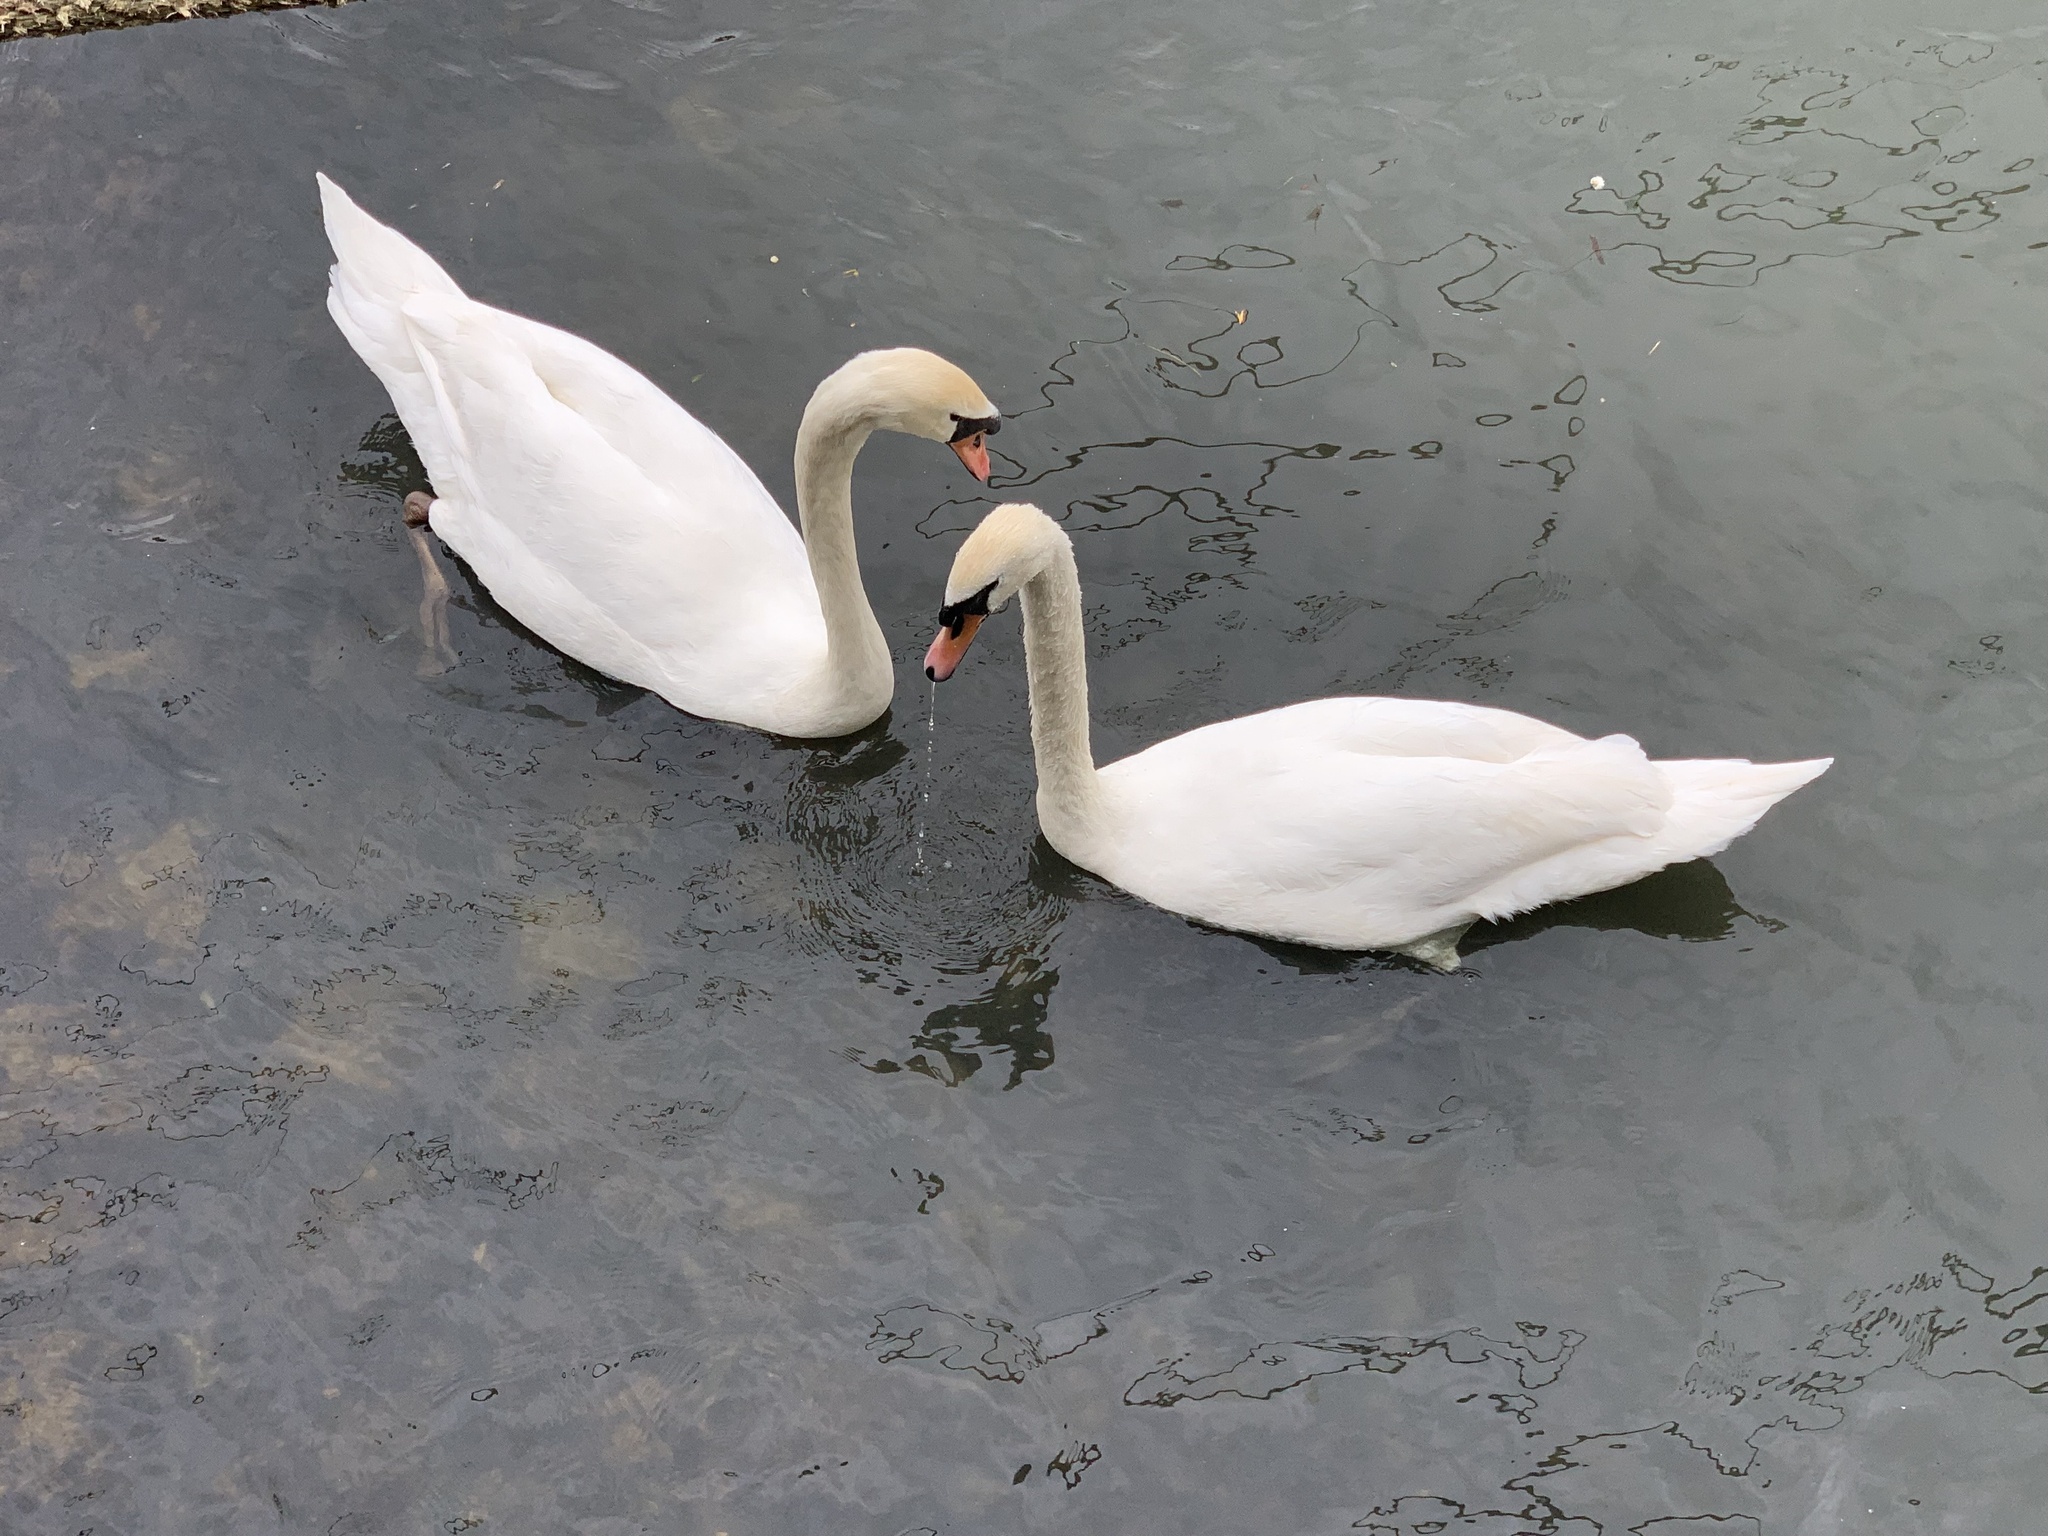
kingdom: Animalia
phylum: Chordata
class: Aves
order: Anseriformes
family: Anatidae
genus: Cygnus
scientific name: Cygnus olor
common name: Mute swan
